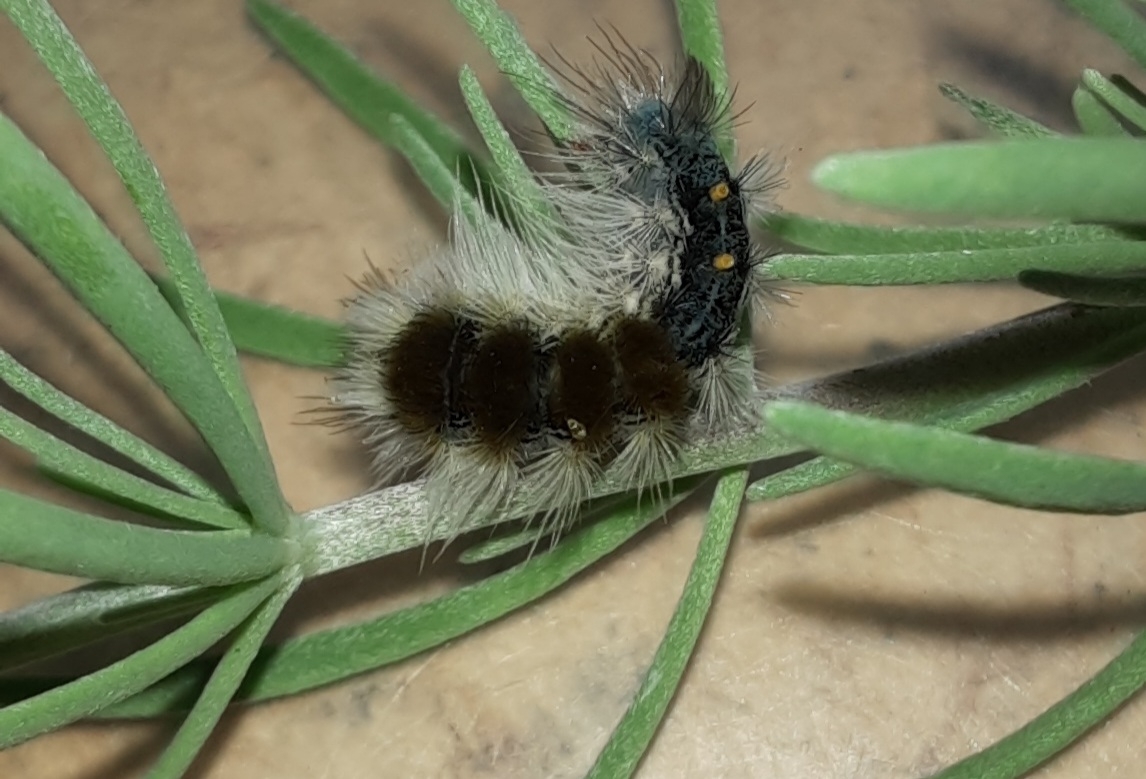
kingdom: Animalia
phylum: Arthropoda
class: Insecta
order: Lepidoptera
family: Erebidae
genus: Bracharoa
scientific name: Bracharoa dregei
